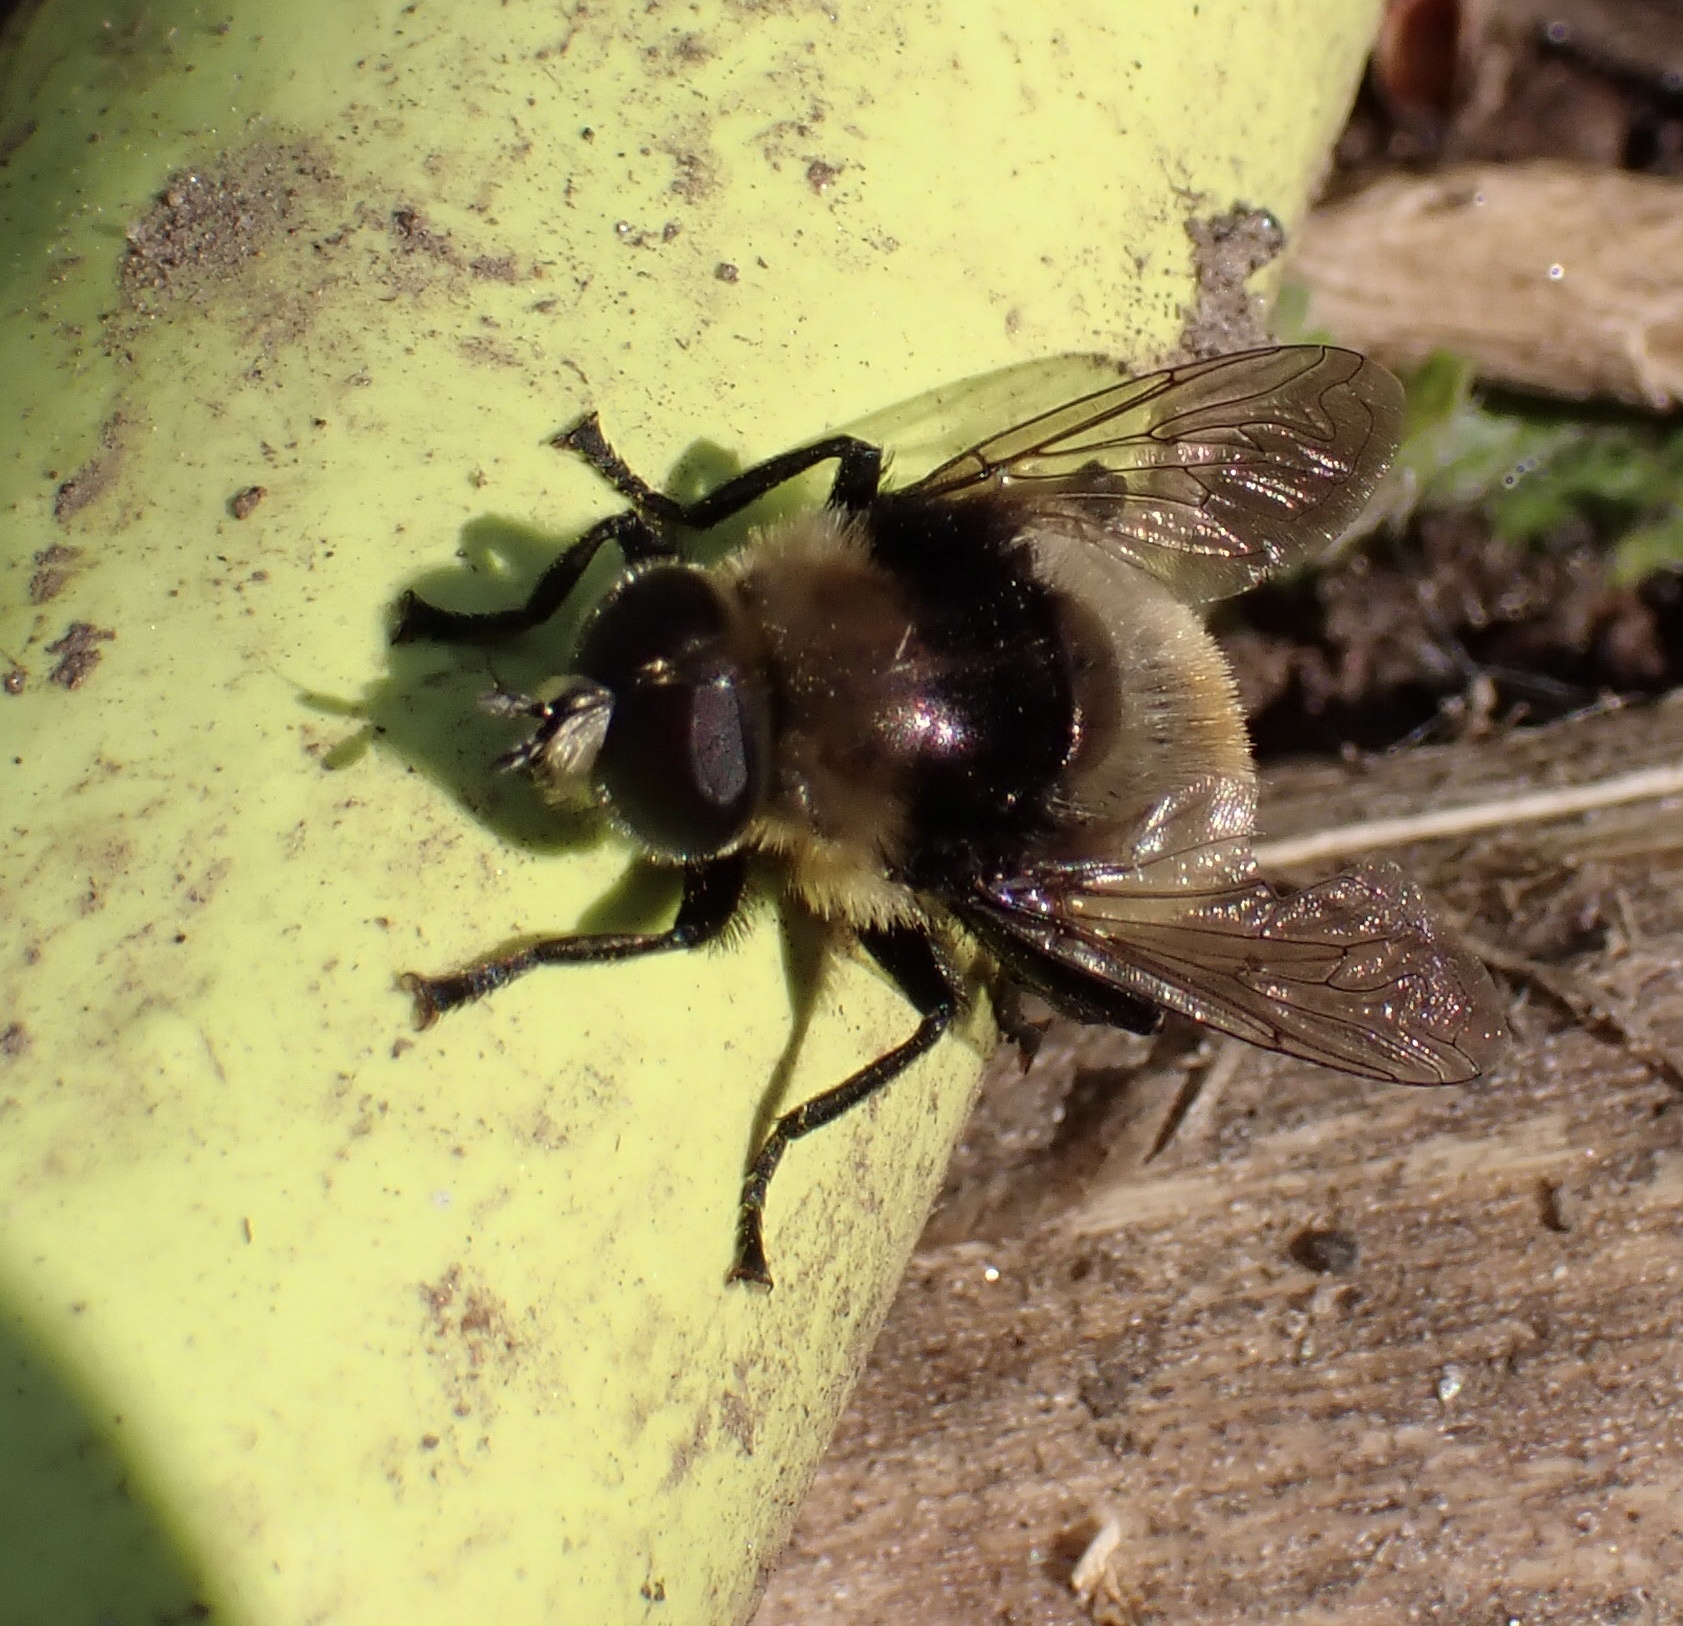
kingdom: Animalia
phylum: Arthropoda
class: Insecta
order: Diptera
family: Syrphidae
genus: Merodon
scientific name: Merodon equestris
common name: Greater bulb-fly
